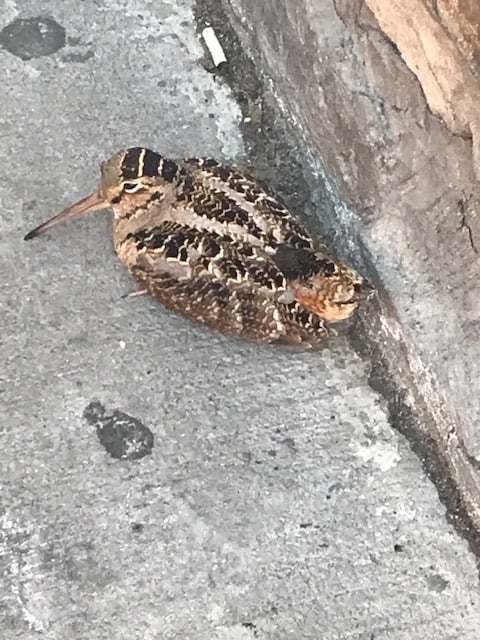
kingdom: Animalia
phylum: Chordata
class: Aves
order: Charadriiformes
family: Scolopacidae
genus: Scolopax
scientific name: Scolopax minor
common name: American woodcock
